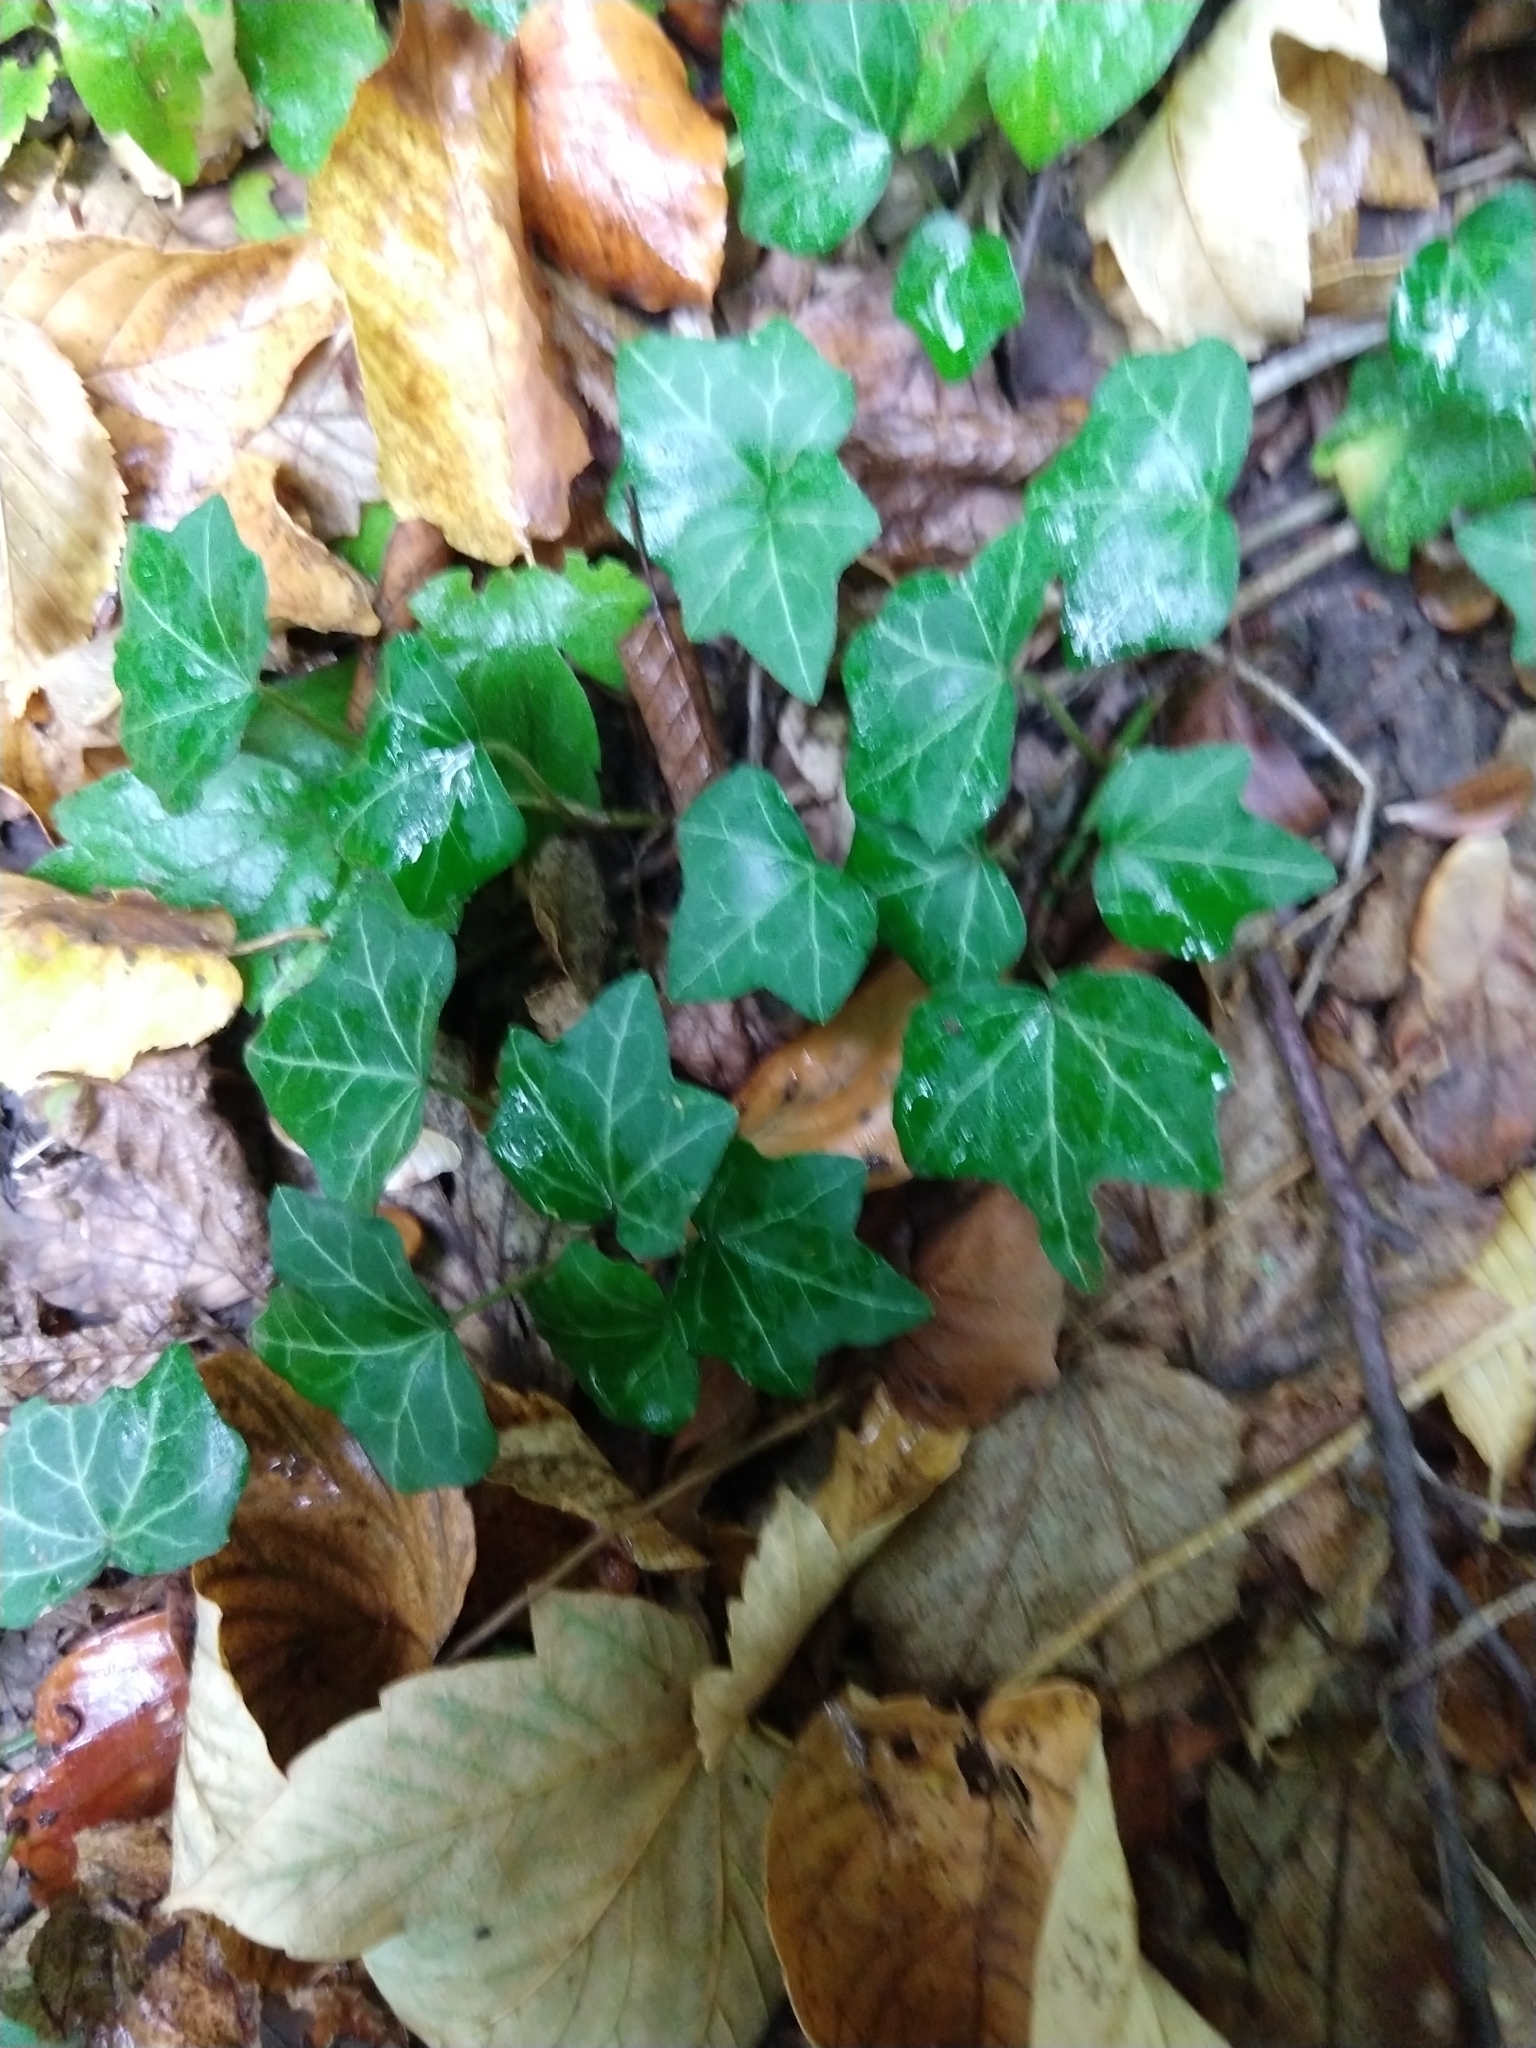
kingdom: Plantae
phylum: Tracheophyta
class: Magnoliopsida
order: Apiales
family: Araliaceae
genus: Hedera
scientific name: Hedera helix
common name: Ivy
